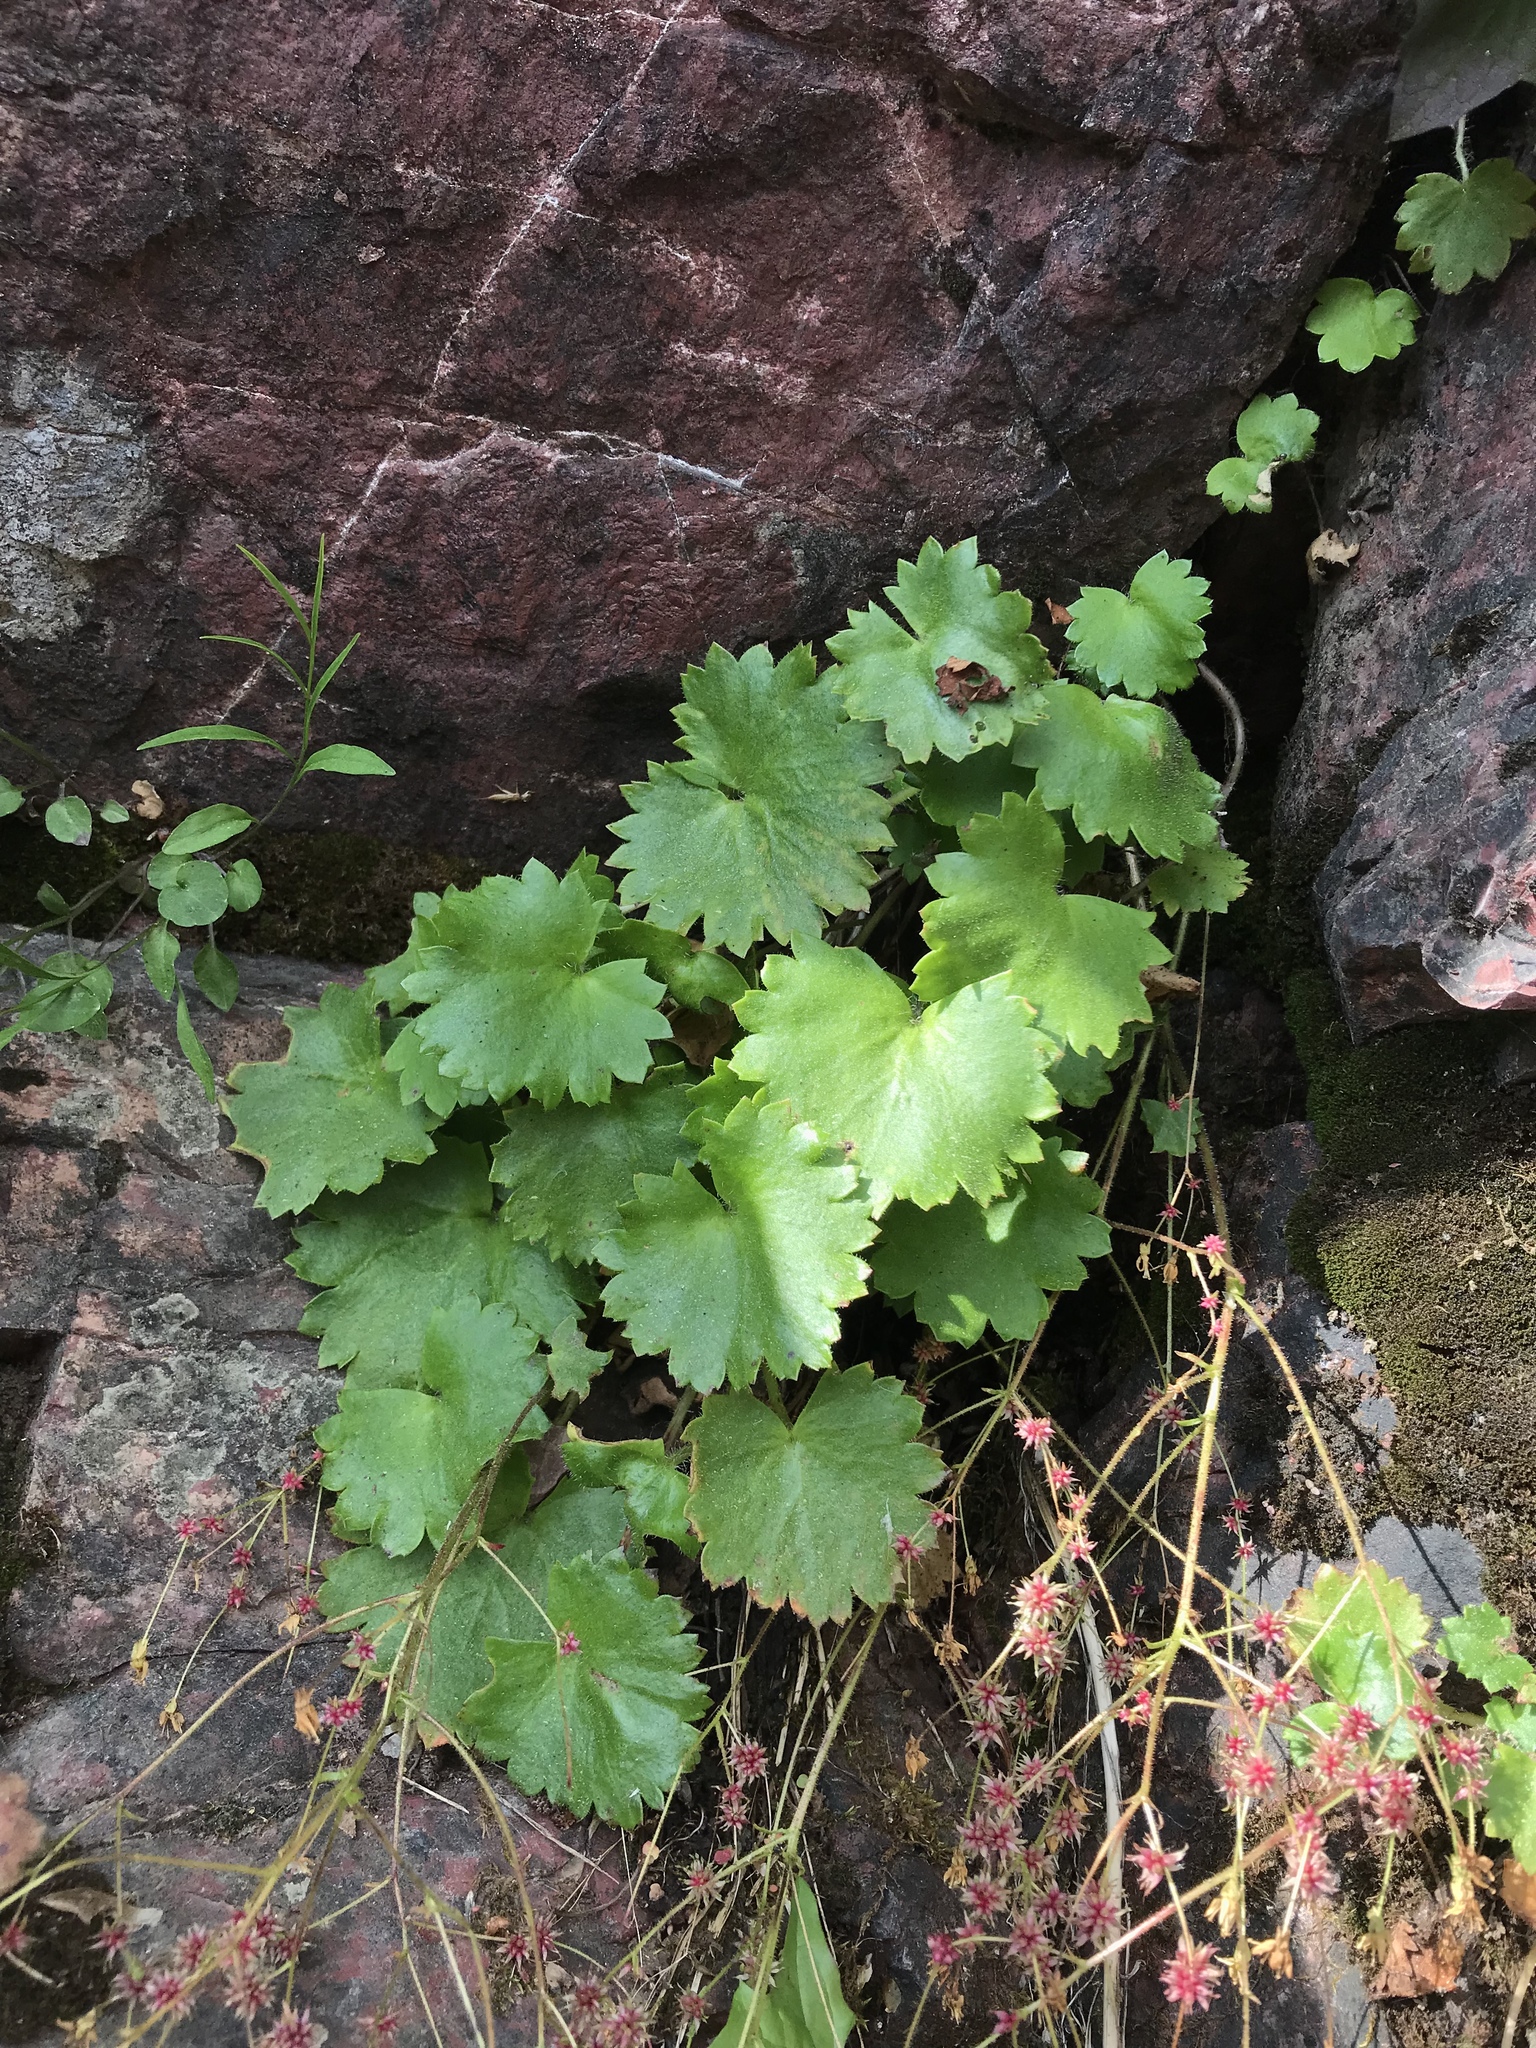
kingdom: Plantae
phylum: Tracheophyta
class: Magnoliopsida
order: Saxifragales
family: Saxifragaceae
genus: Micranthes
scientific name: Micranthes mertensiana
